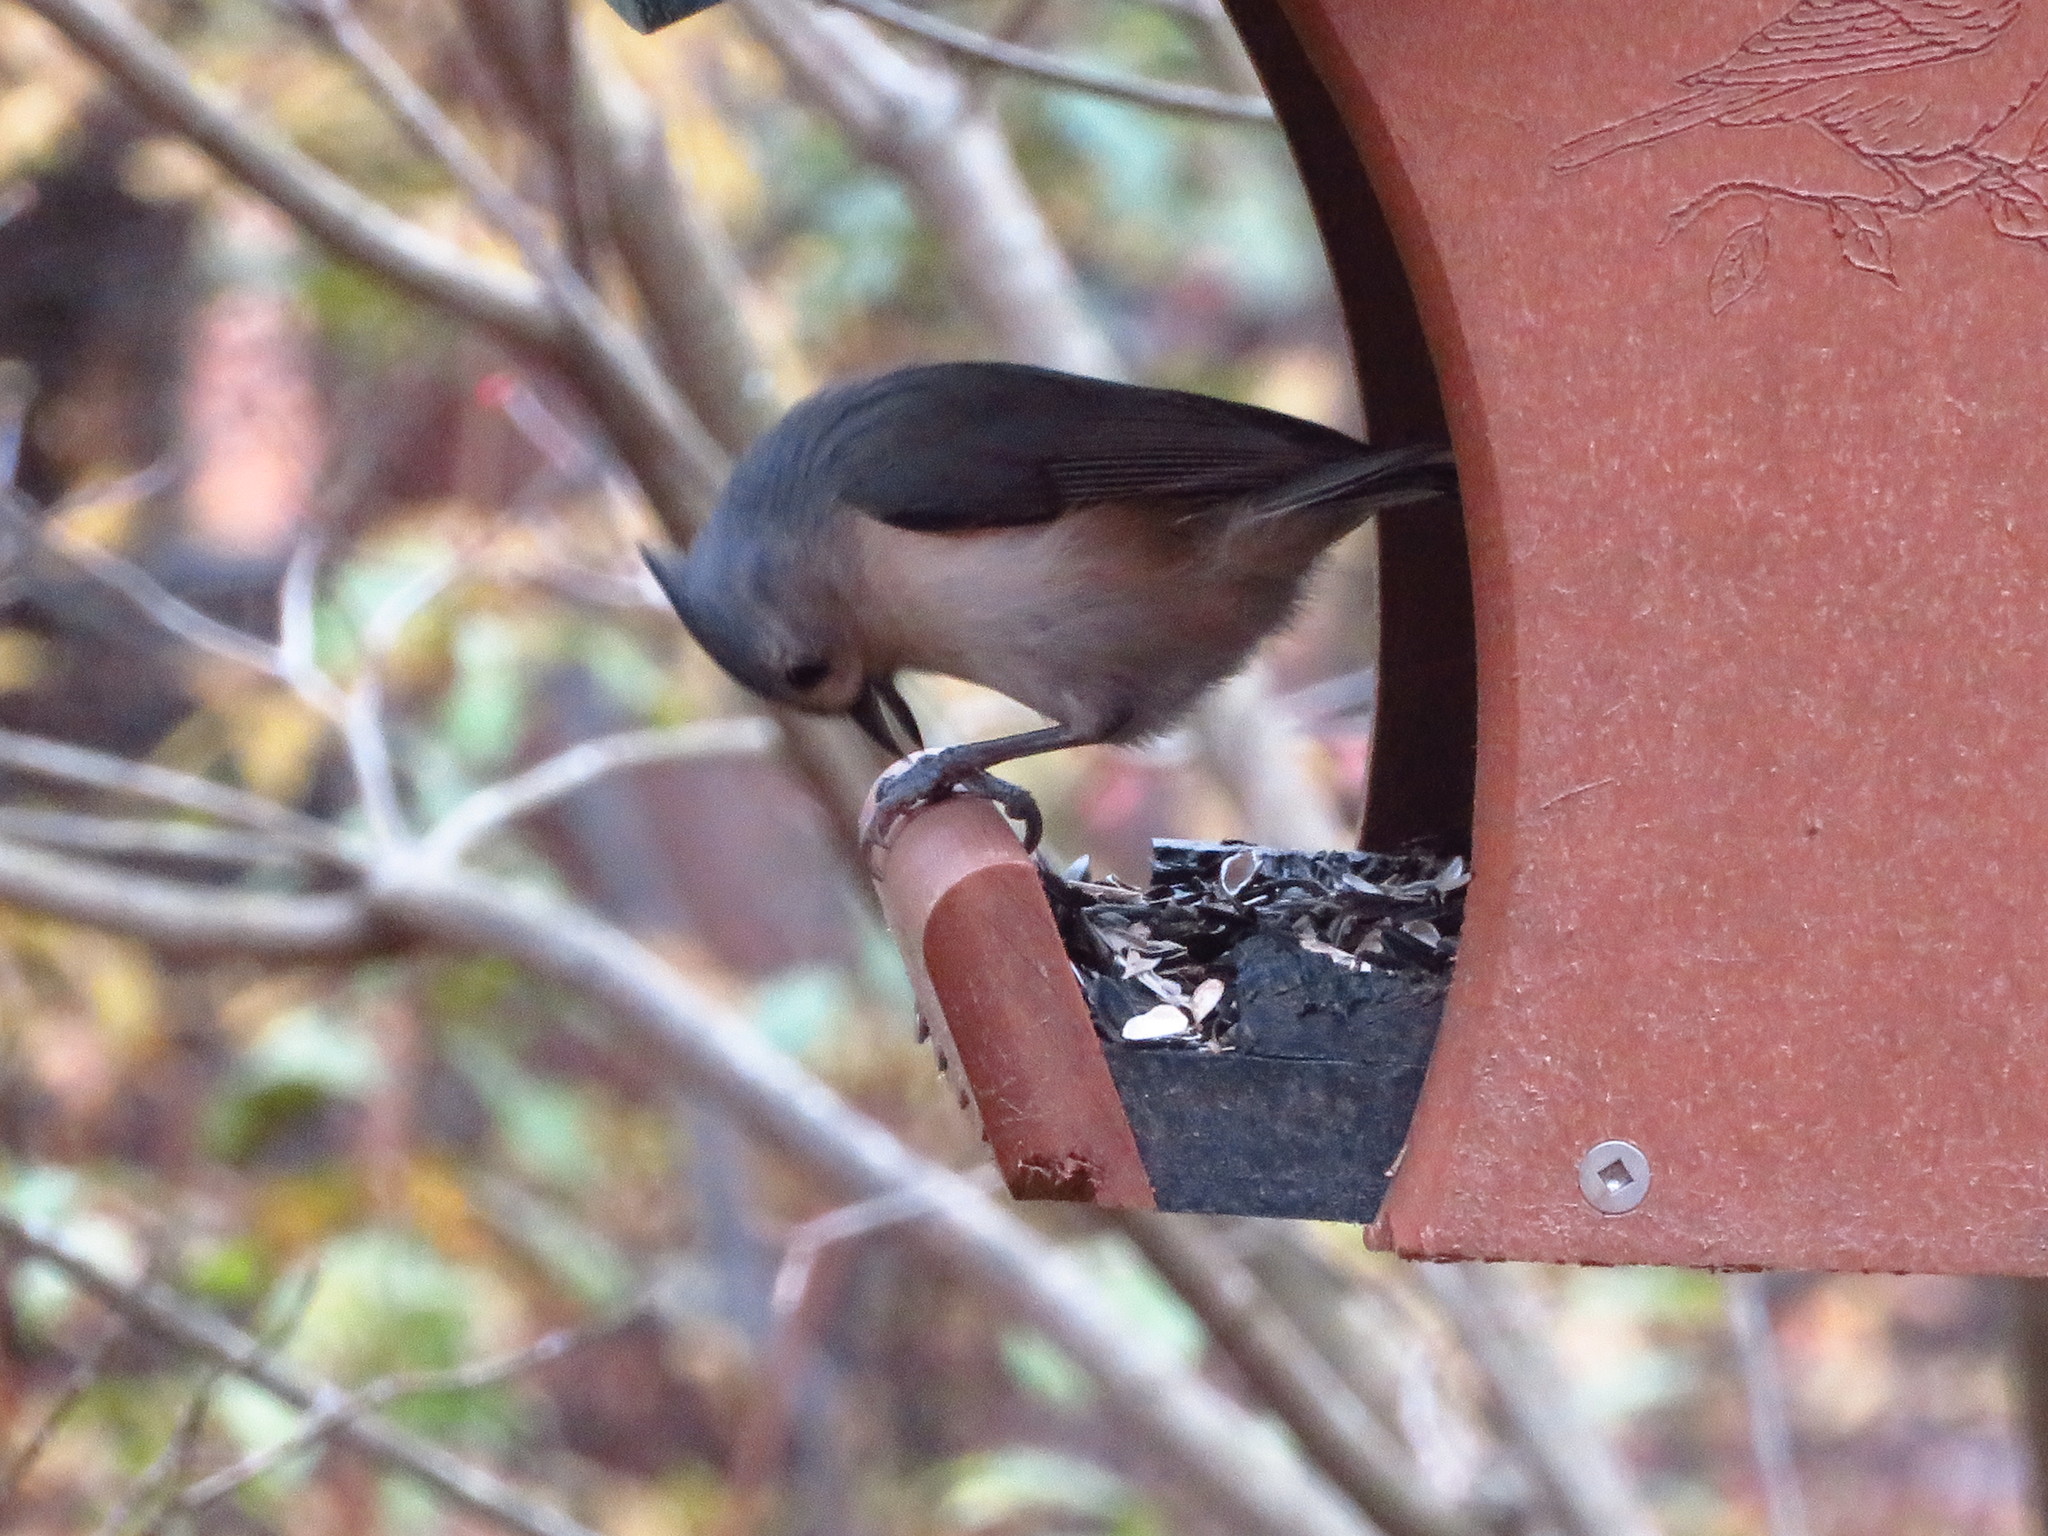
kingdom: Animalia
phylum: Chordata
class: Aves
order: Passeriformes
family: Paridae
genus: Baeolophus
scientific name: Baeolophus bicolor
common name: Tufted titmouse
